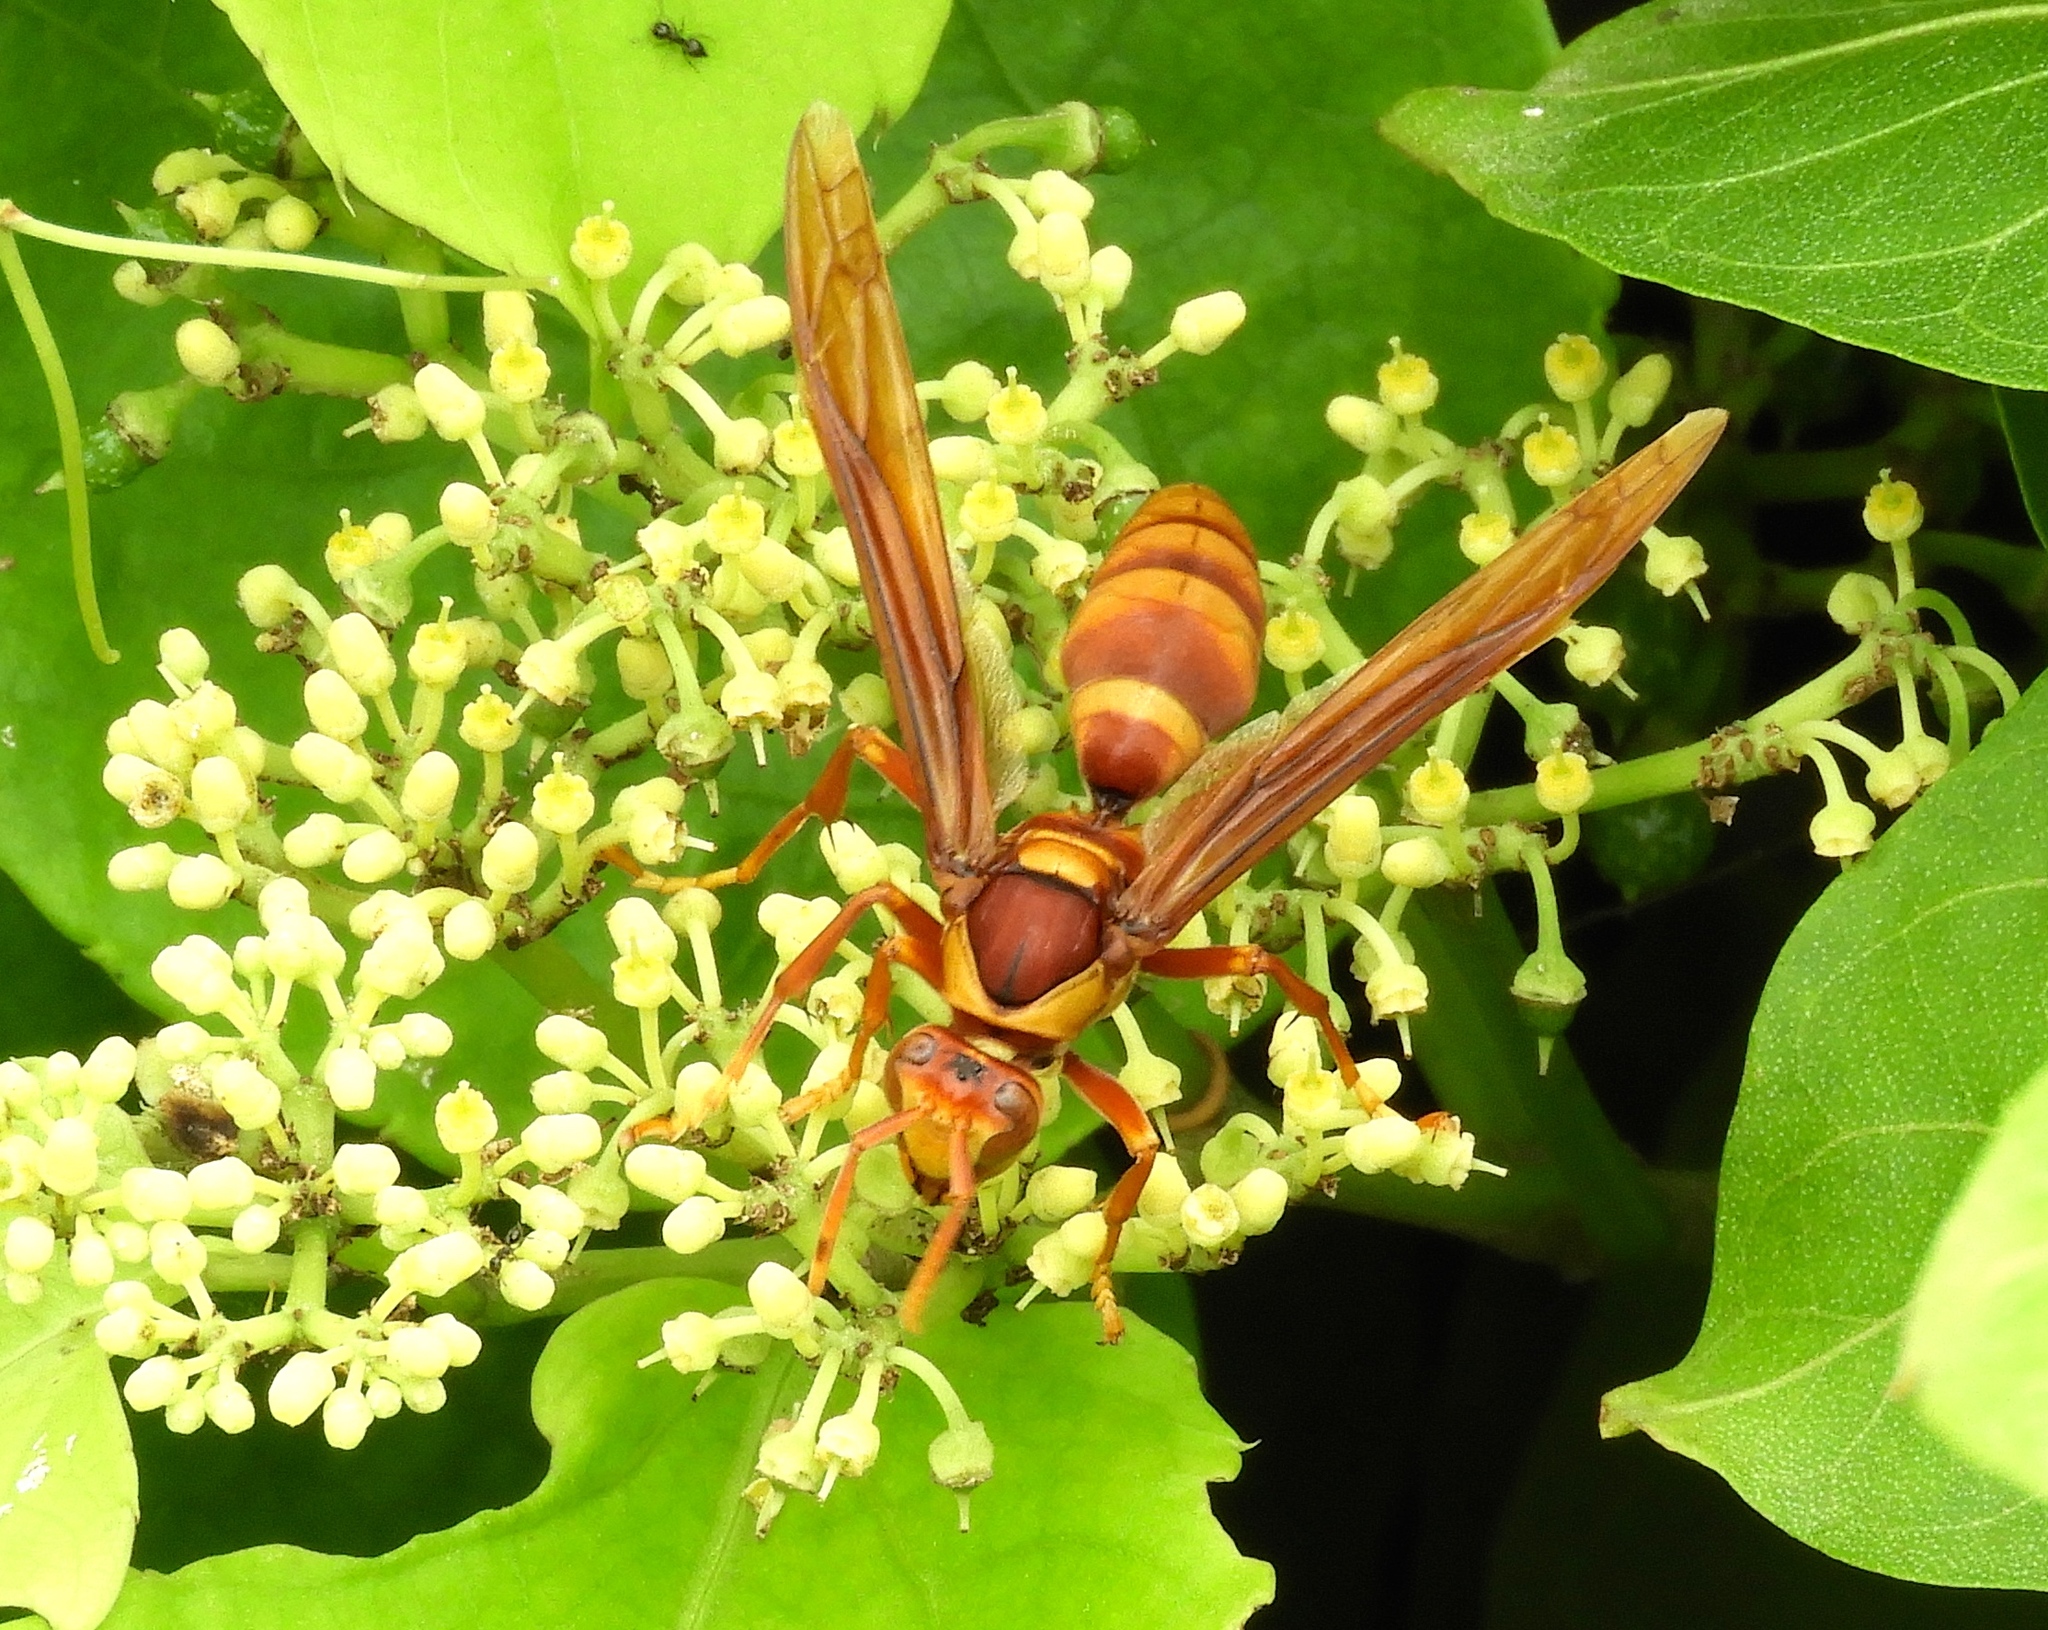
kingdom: Animalia
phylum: Arthropoda
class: Insecta
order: Hymenoptera
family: Eumenidae
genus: Polistes
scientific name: Polistes carnifex
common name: Paper wasp
